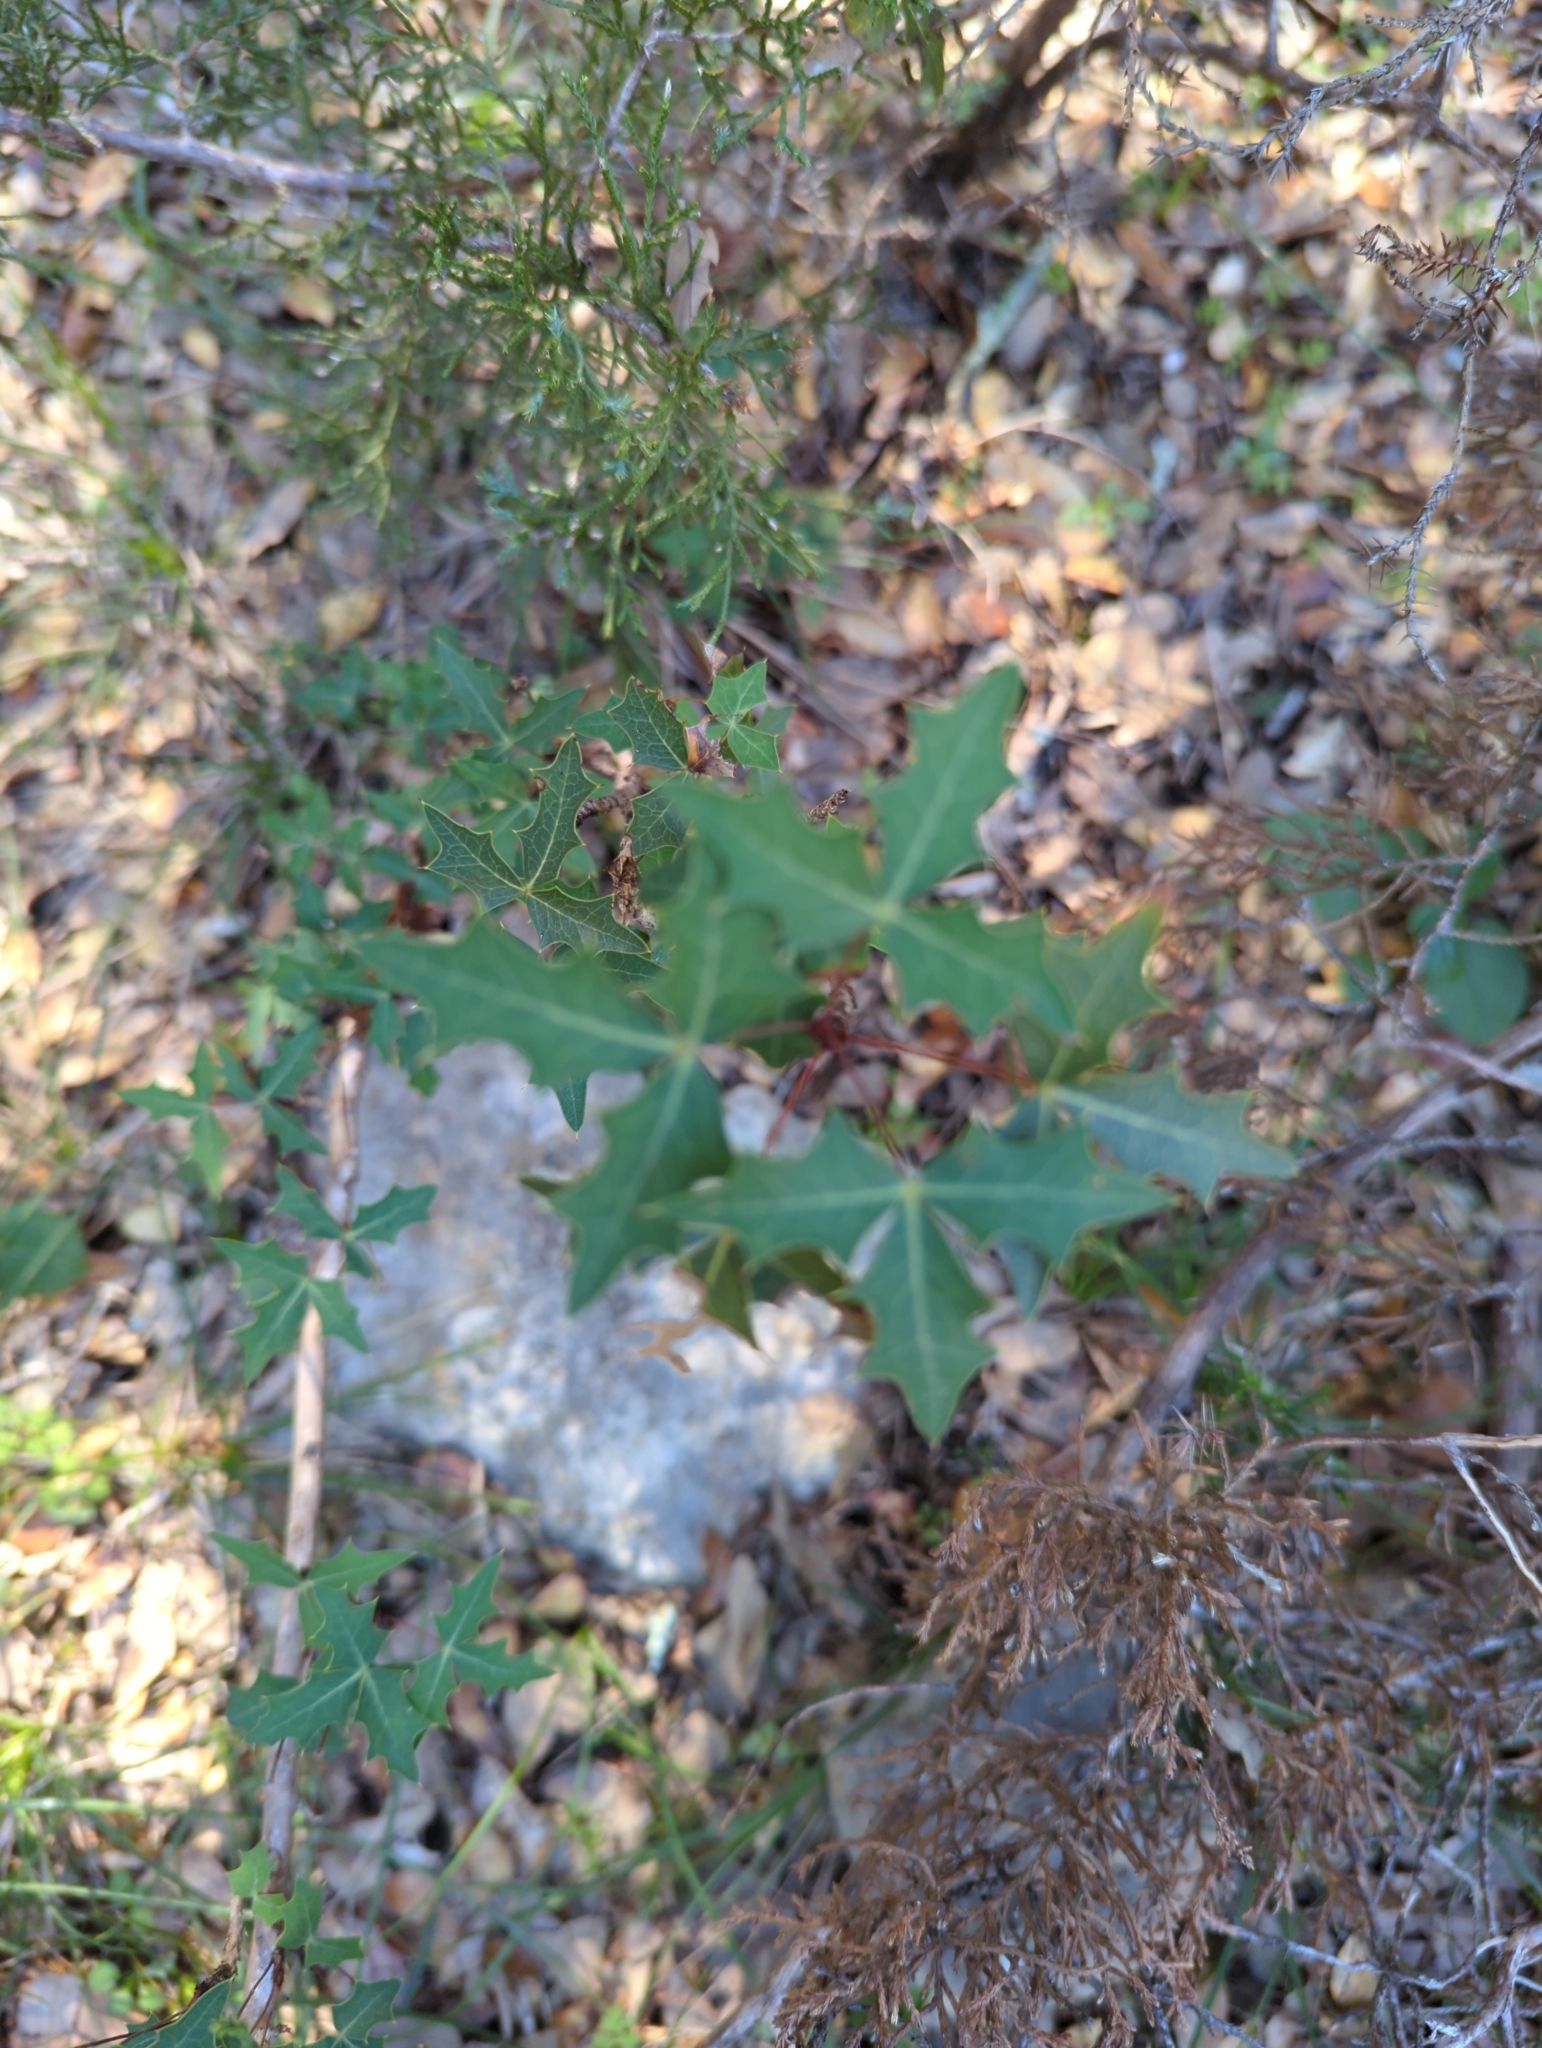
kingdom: Plantae
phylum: Tracheophyta
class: Magnoliopsida
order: Ranunculales
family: Berberidaceae
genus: Alloberberis
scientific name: Alloberberis trifoliolata
